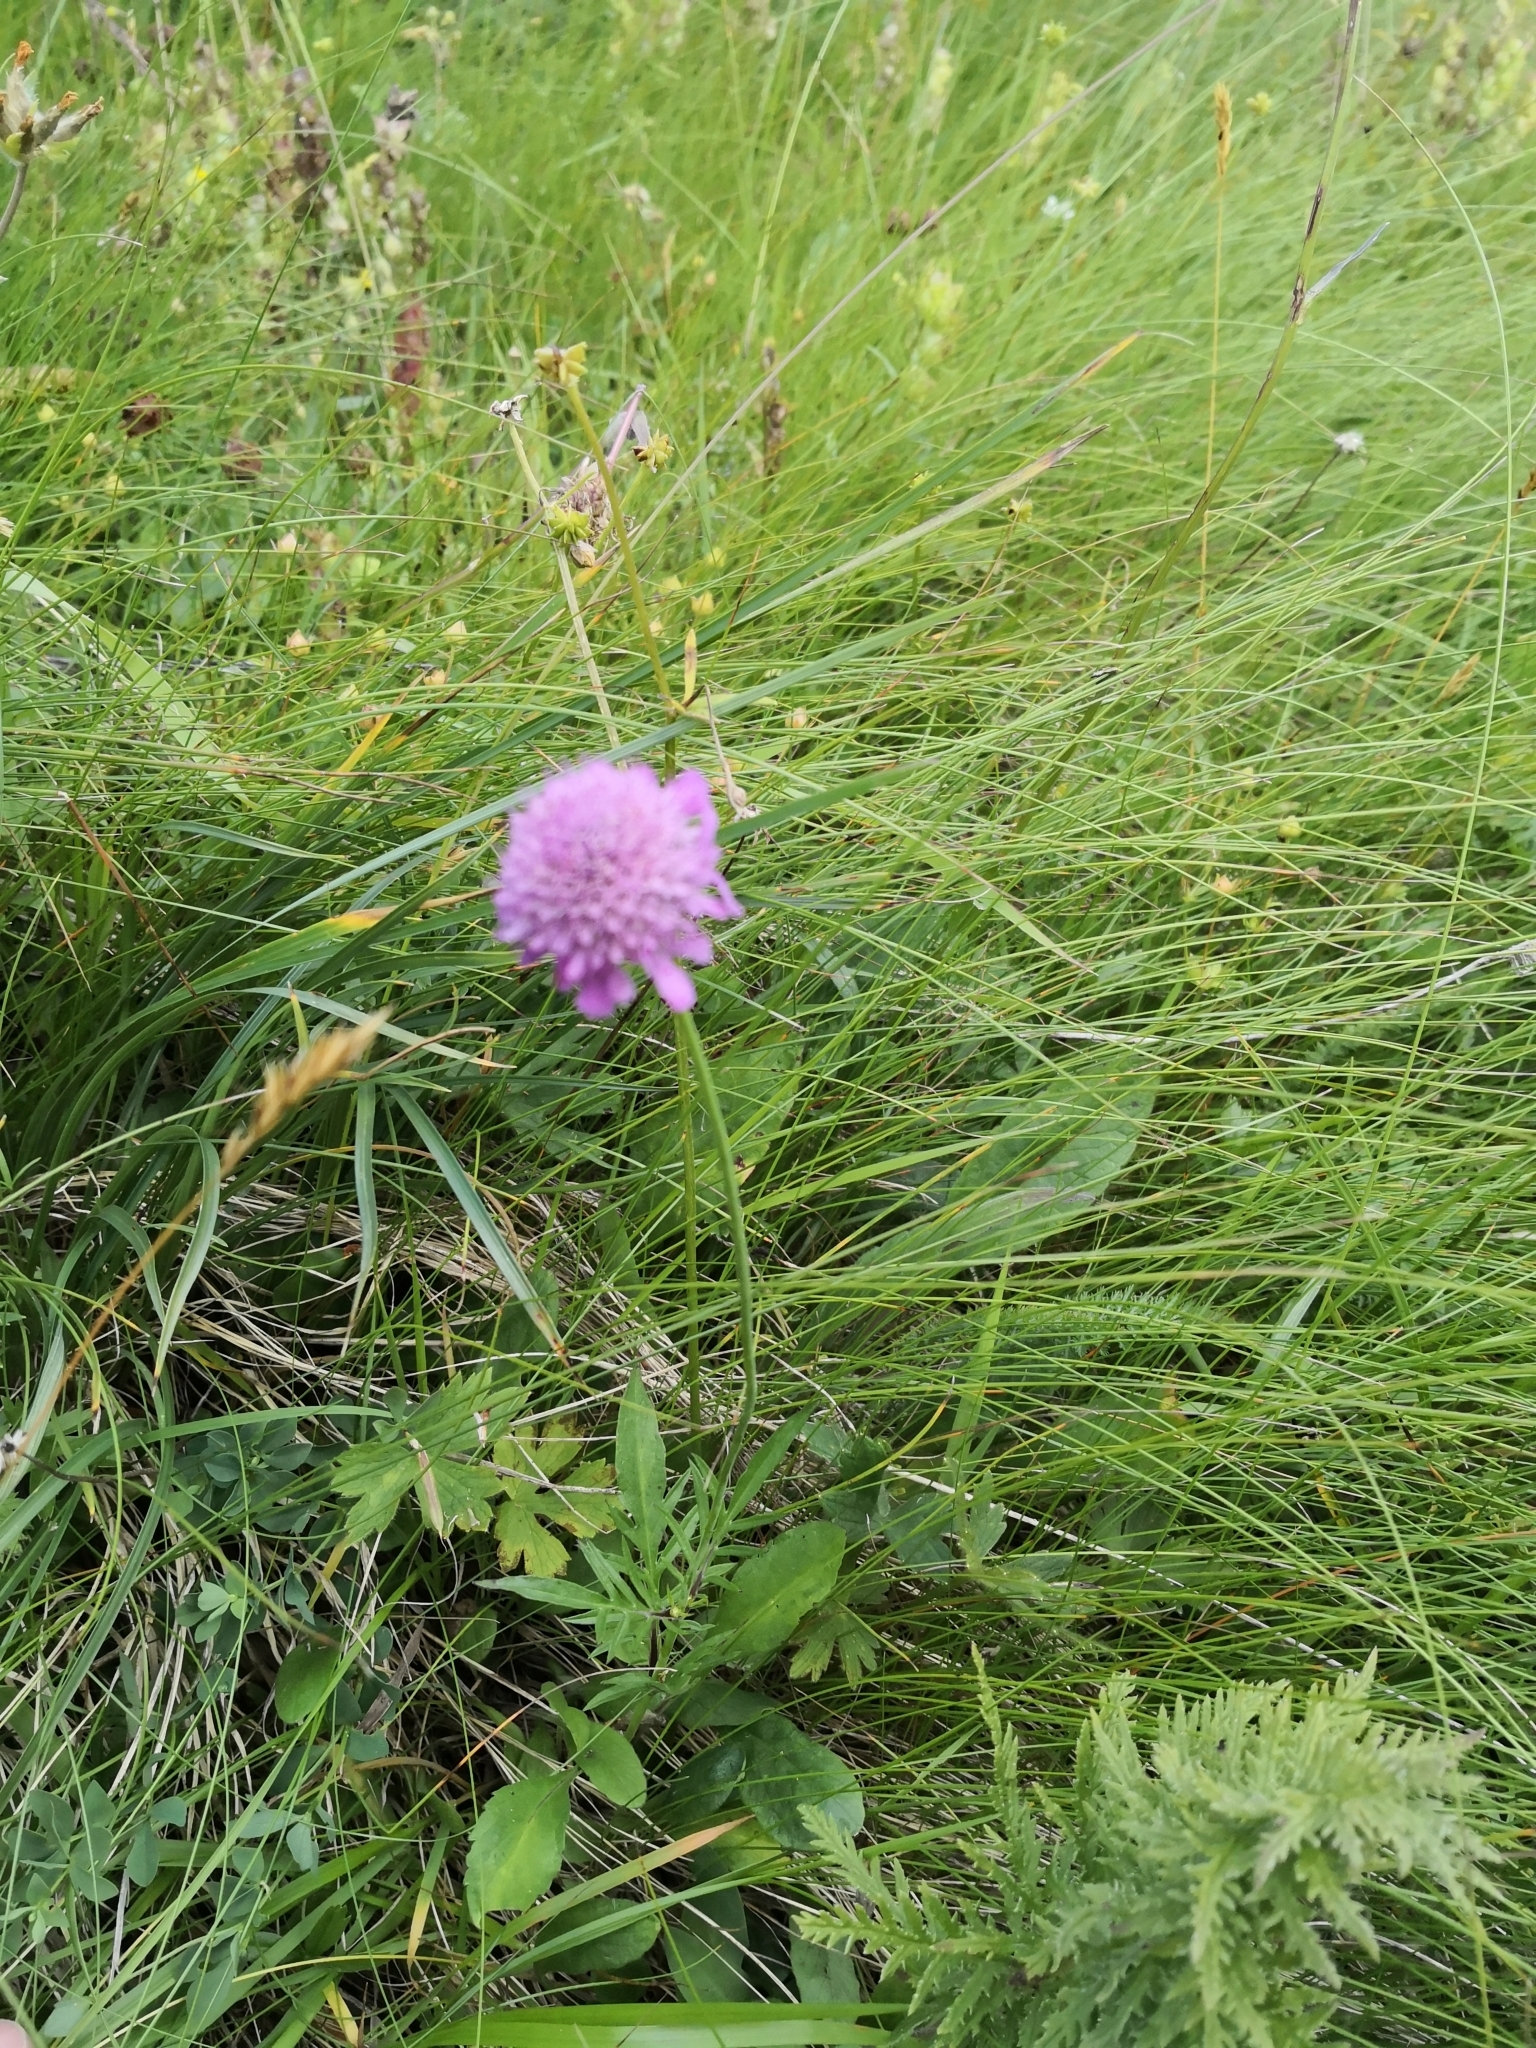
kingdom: Plantae
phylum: Tracheophyta
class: Magnoliopsida
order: Dipsacales
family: Caprifoliaceae
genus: Scabiosa
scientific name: Scabiosa lucida
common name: Shining scabious
